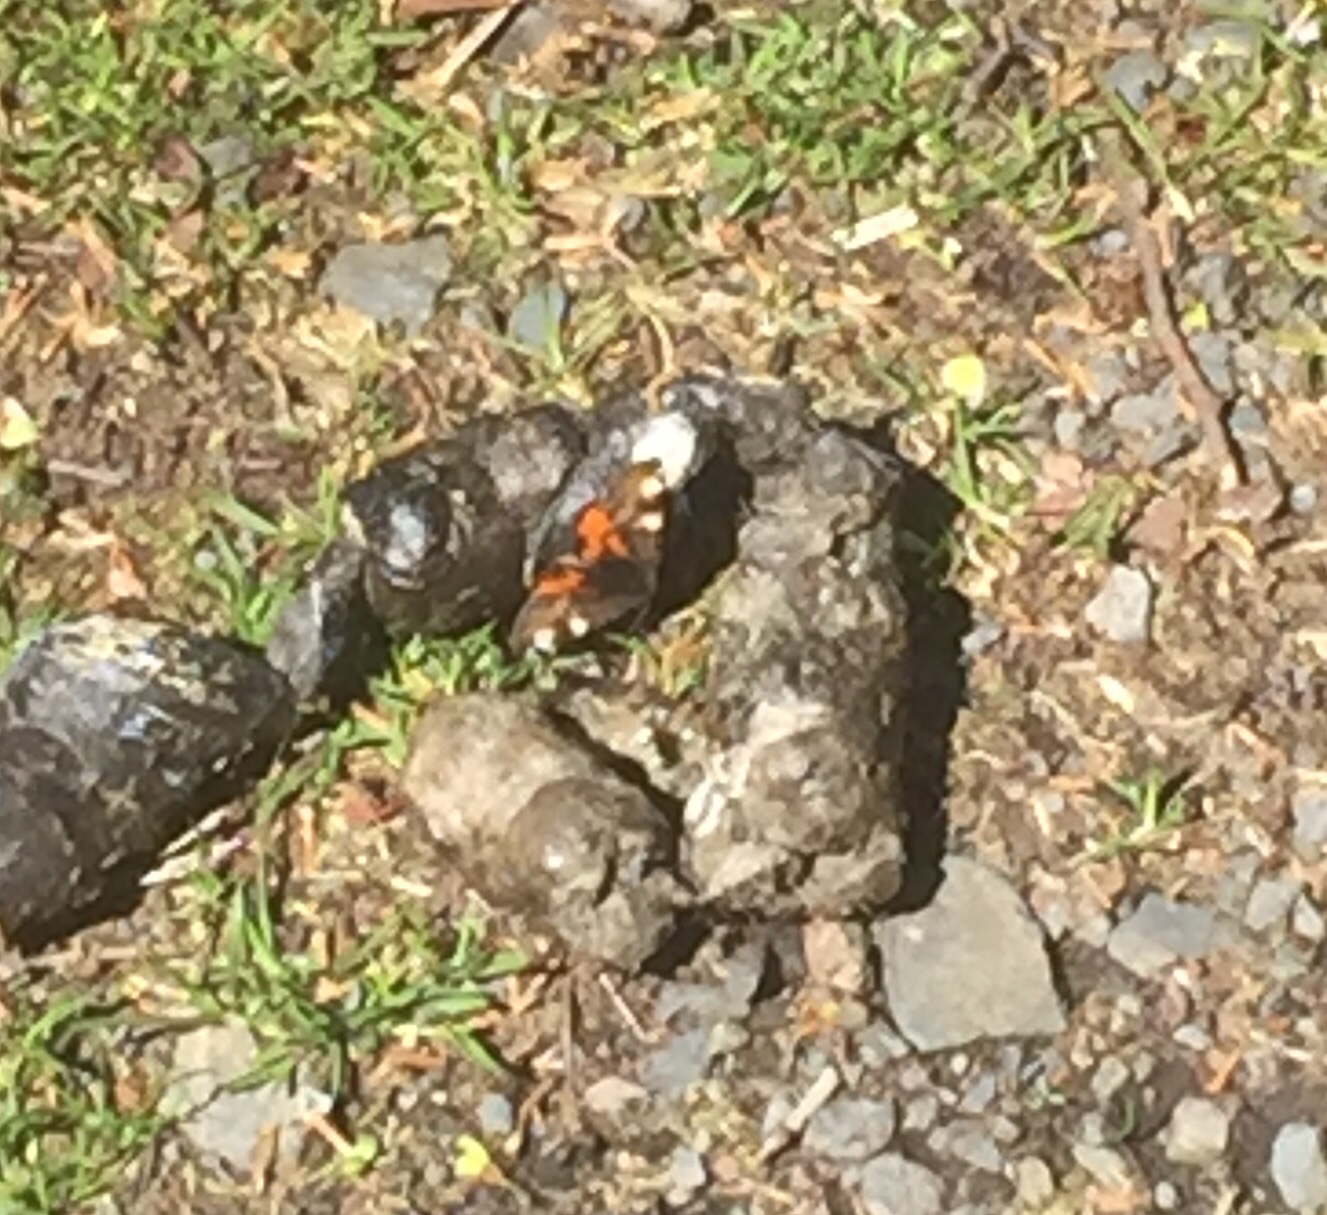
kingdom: Animalia
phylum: Arthropoda
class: Insecta
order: Lepidoptera
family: Geometridae
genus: Archiearis
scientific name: Archiearis infans
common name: First born geometer
